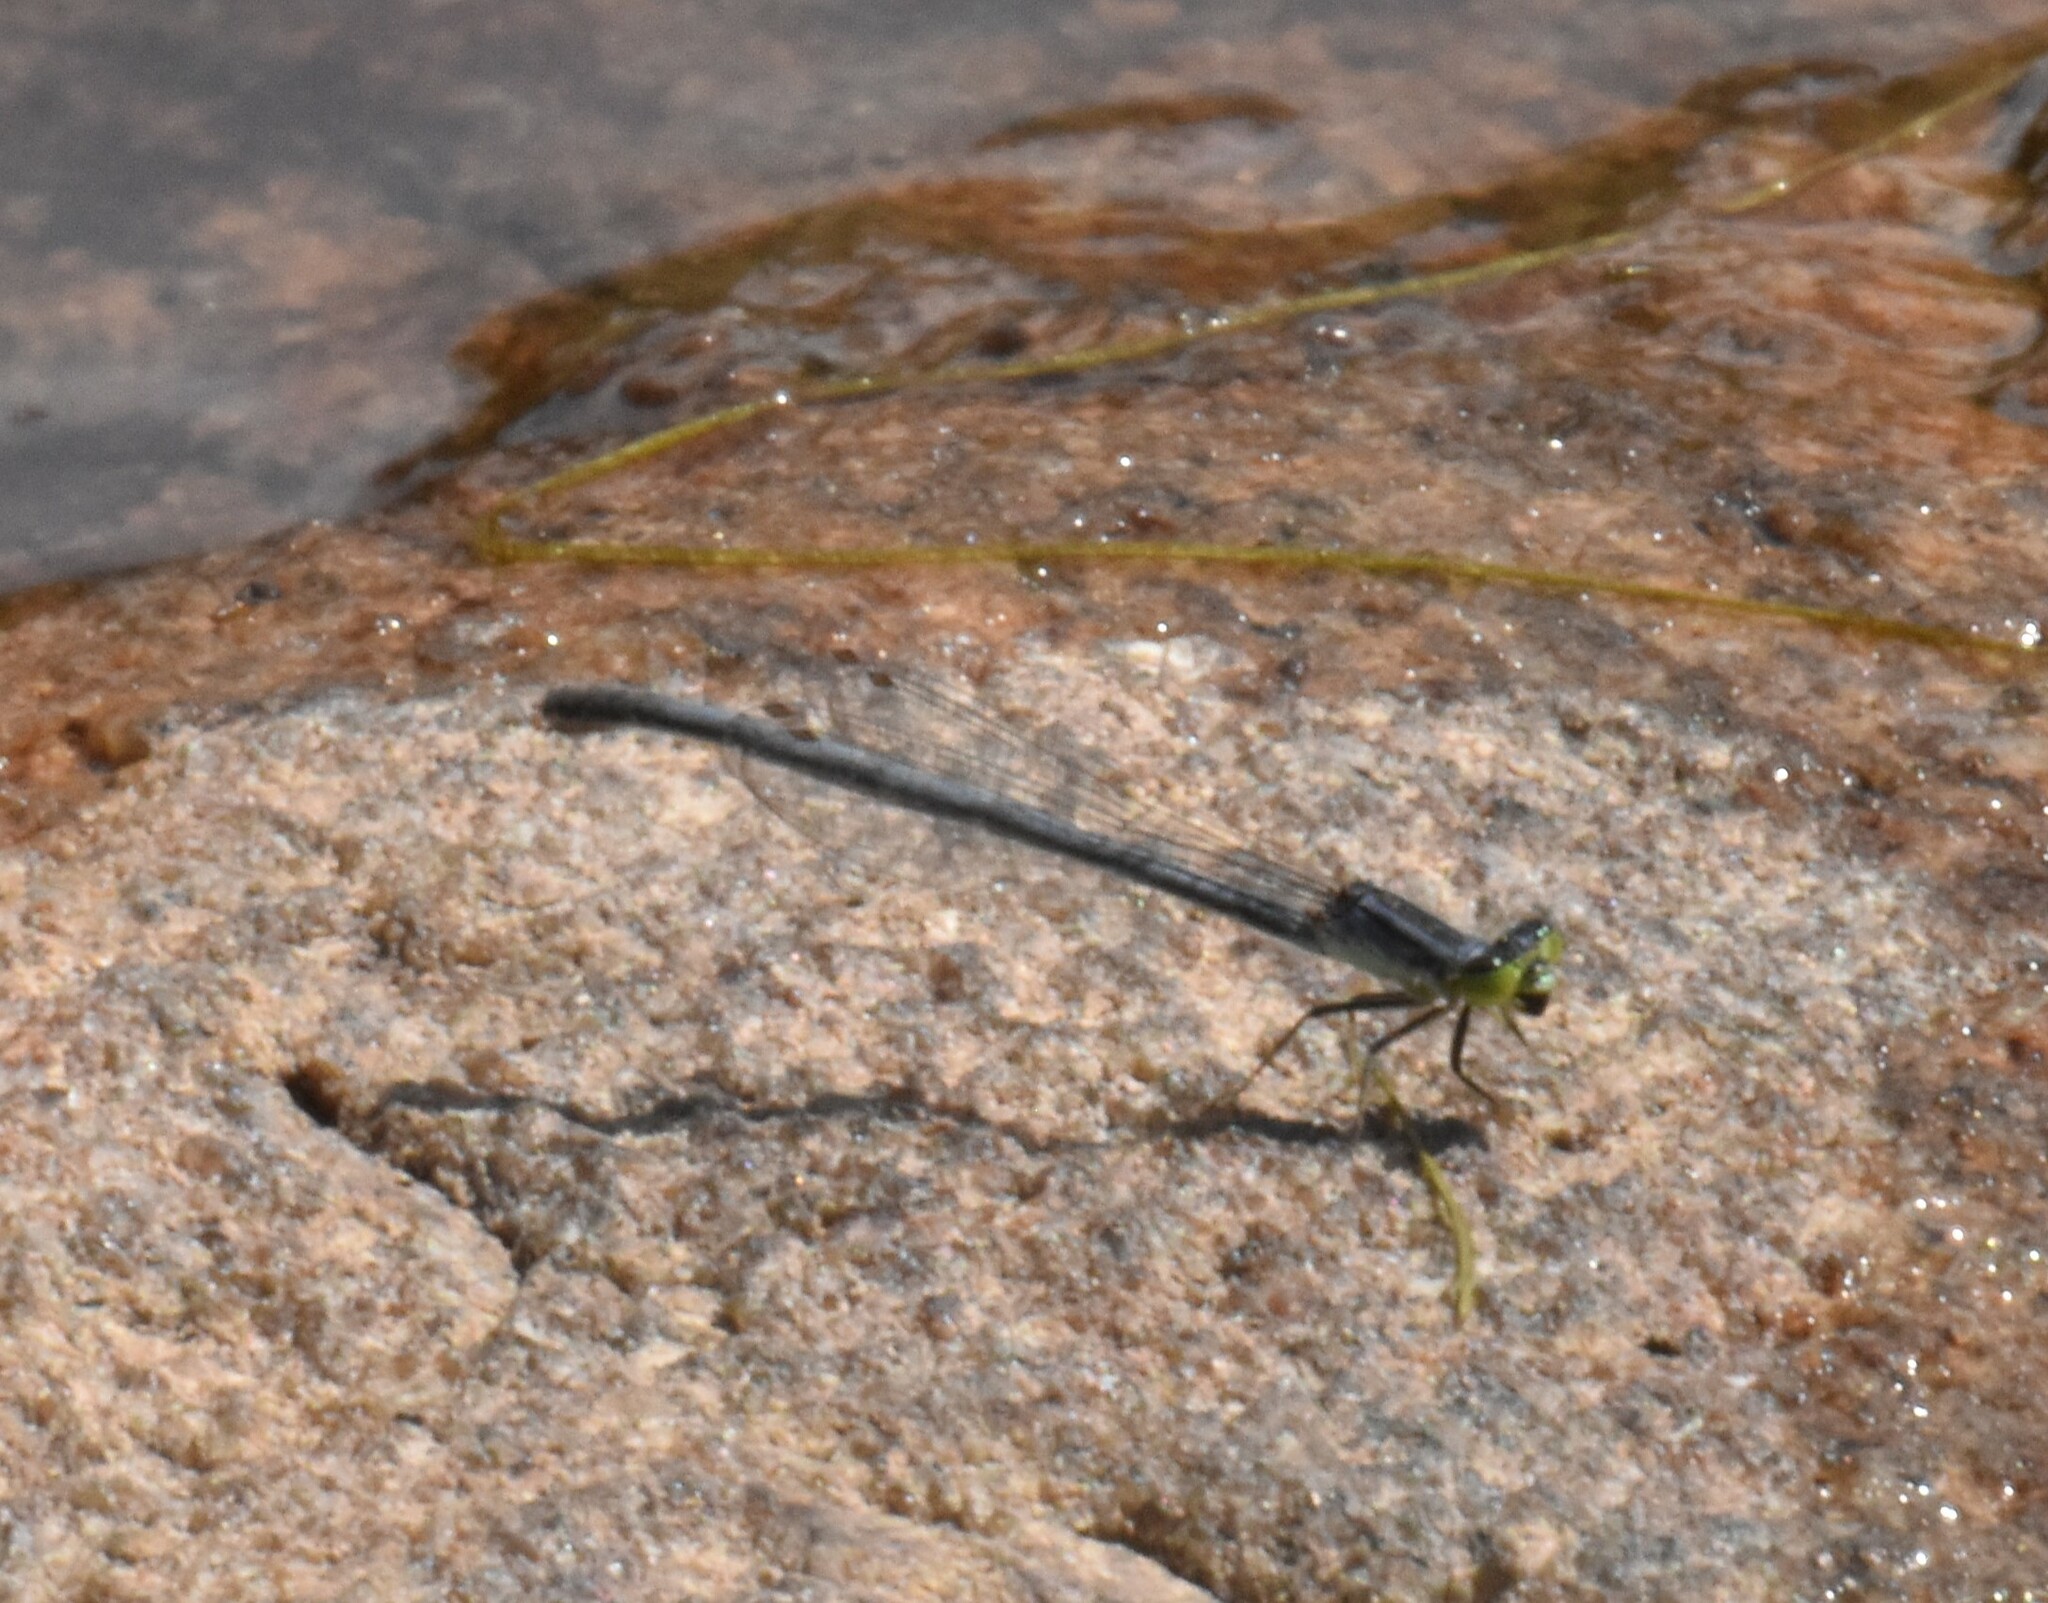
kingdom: Animalia
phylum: Arthropoda
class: Insecta
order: Odonata
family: Coenagrionidae
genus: Ischnura
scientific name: Ischnura verticalis
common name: Eastern forktail
